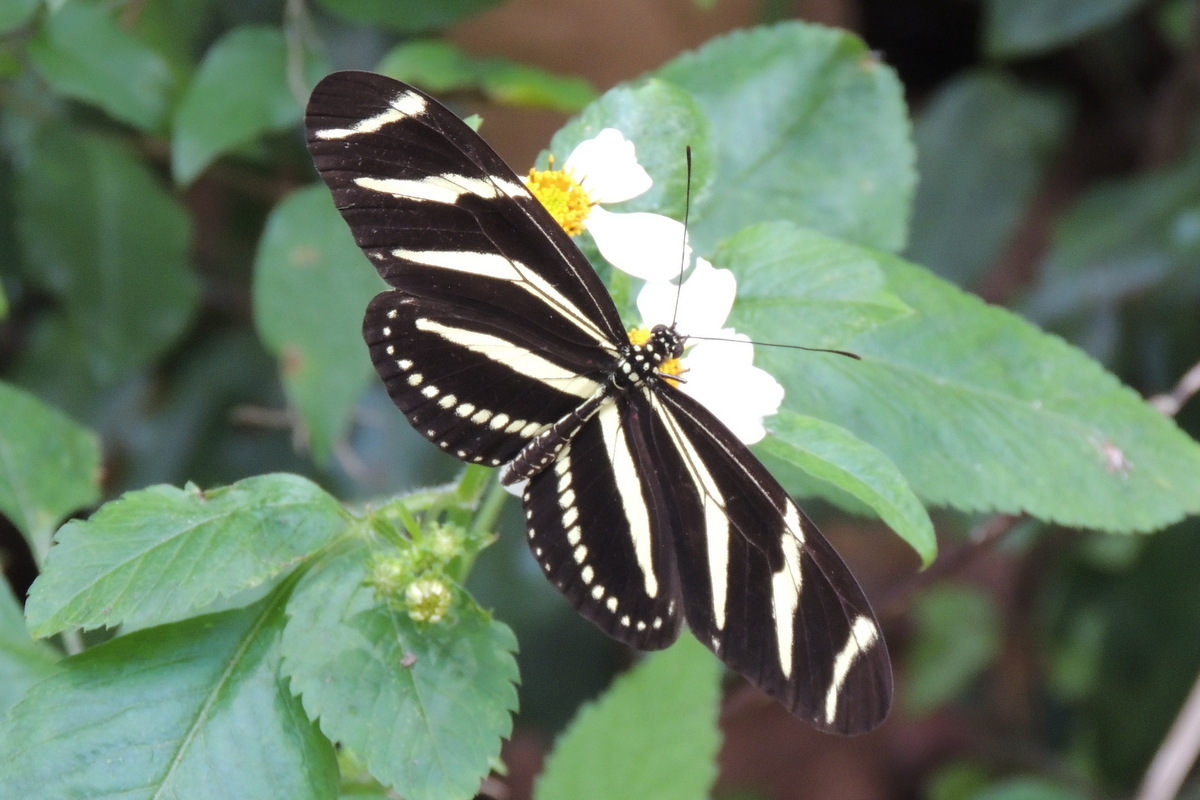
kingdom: Animalia
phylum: Arthropoda
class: Insecta
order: Lepidoptera
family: Nymphalidae
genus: Heliconius
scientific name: Heliconius charithonia
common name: Zebra long wing
